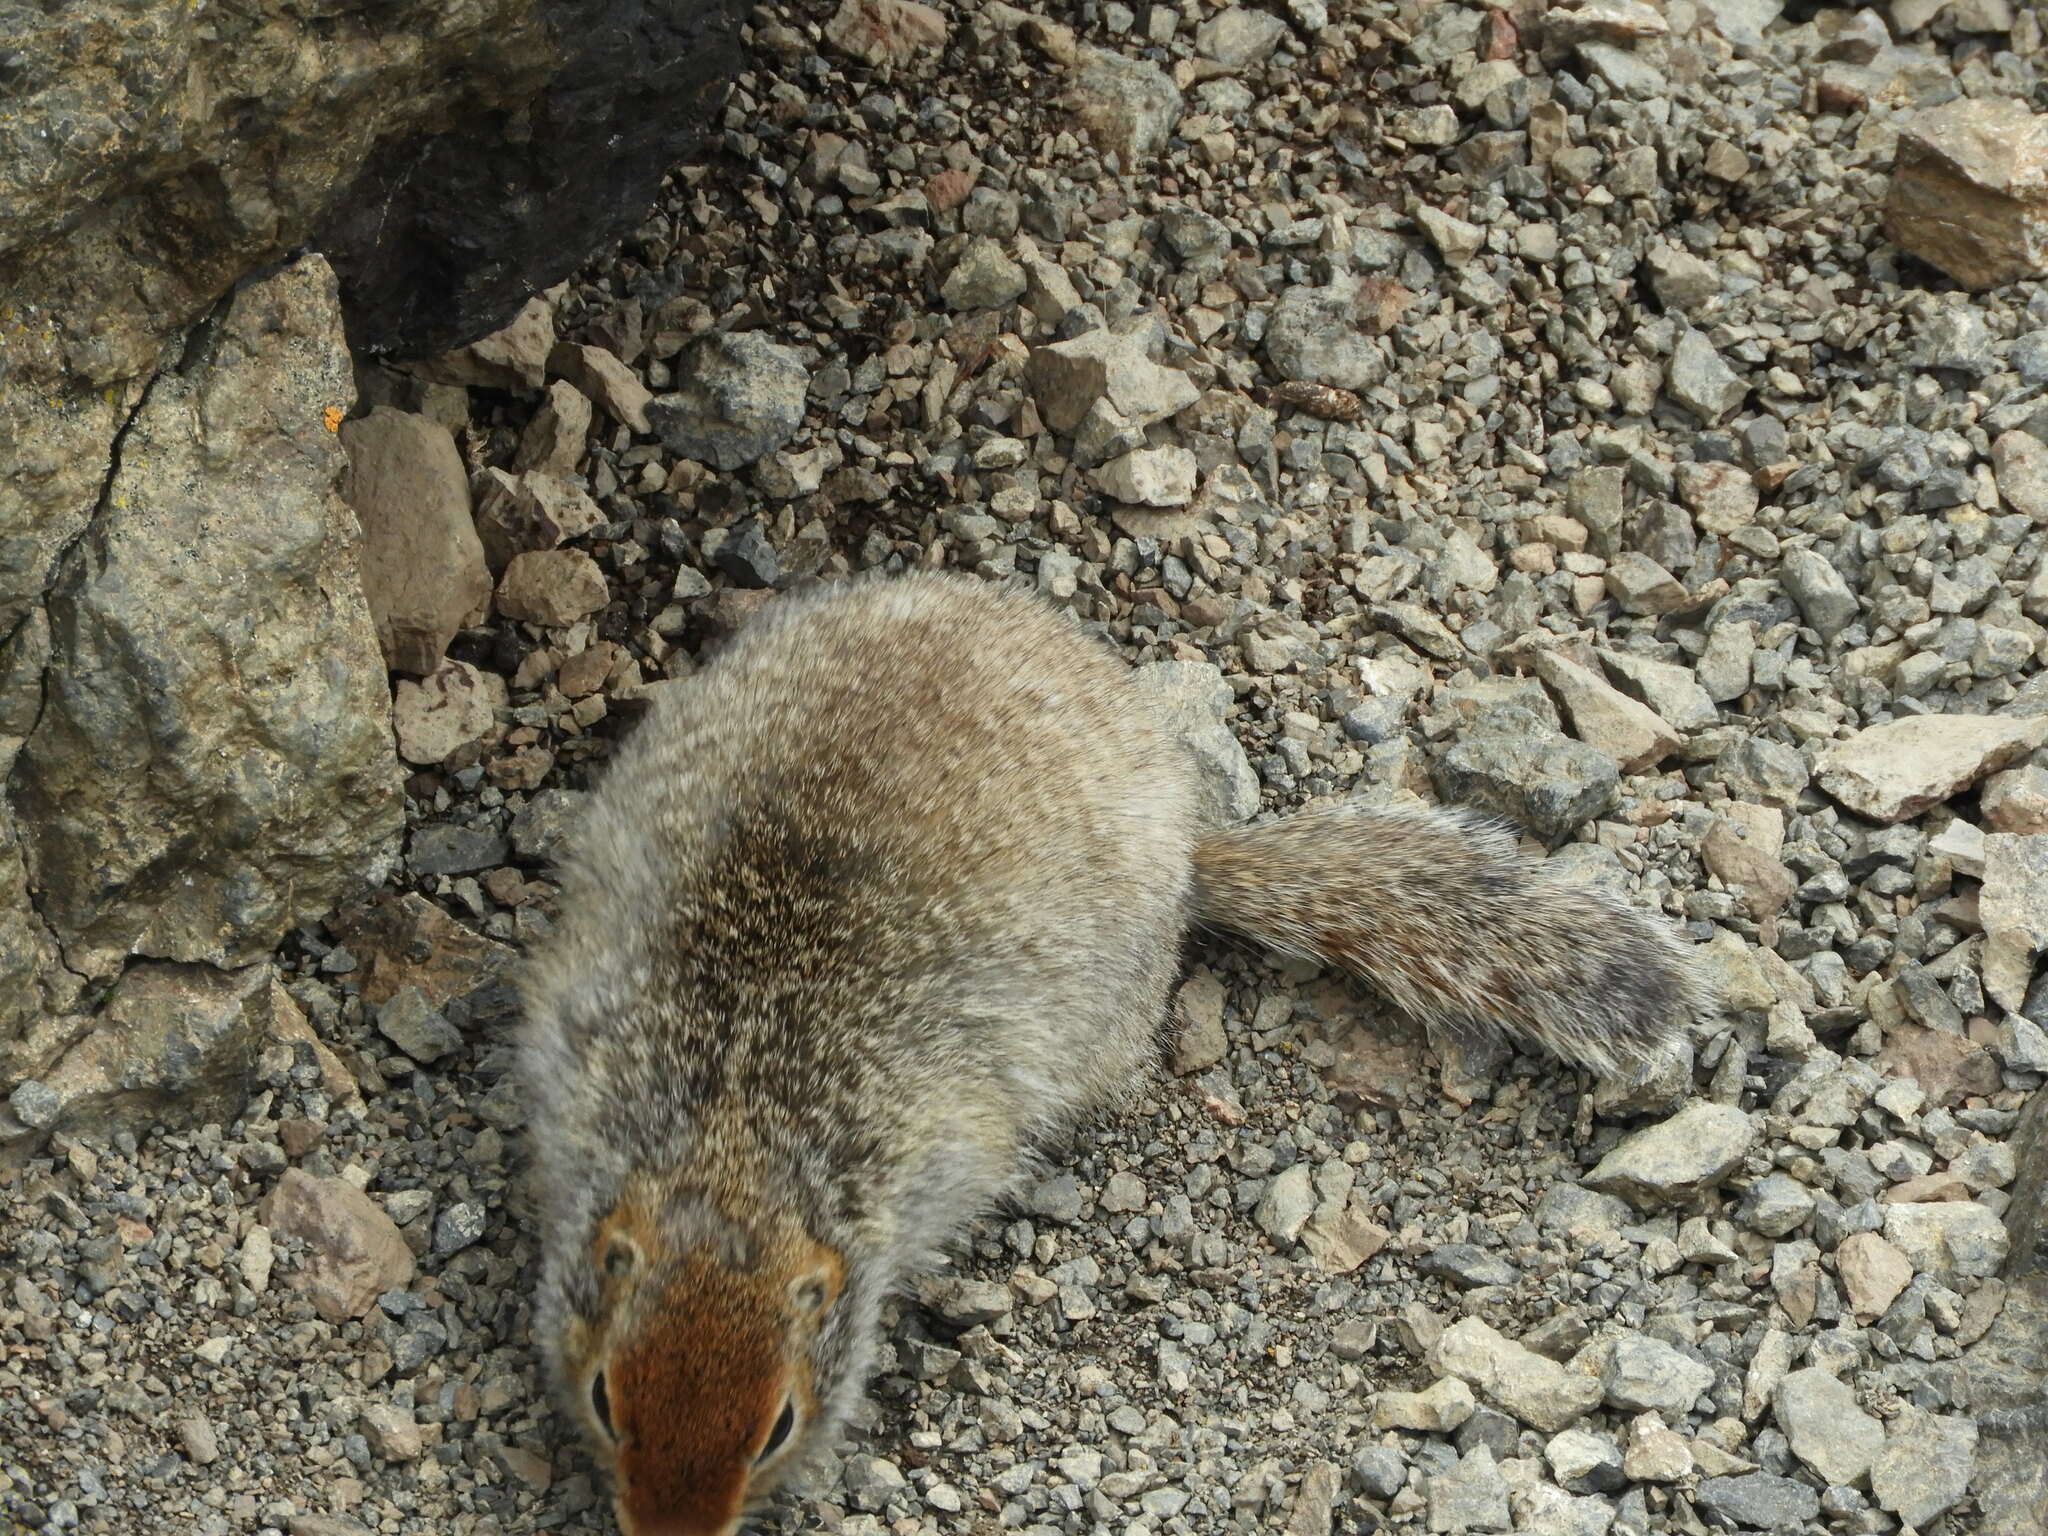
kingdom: Animalia
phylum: Chordata
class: Mammalia
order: Rodentia
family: Sciuridae
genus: Urocitellus
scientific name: Urocitellus parryii
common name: Arctic ground squirrel
